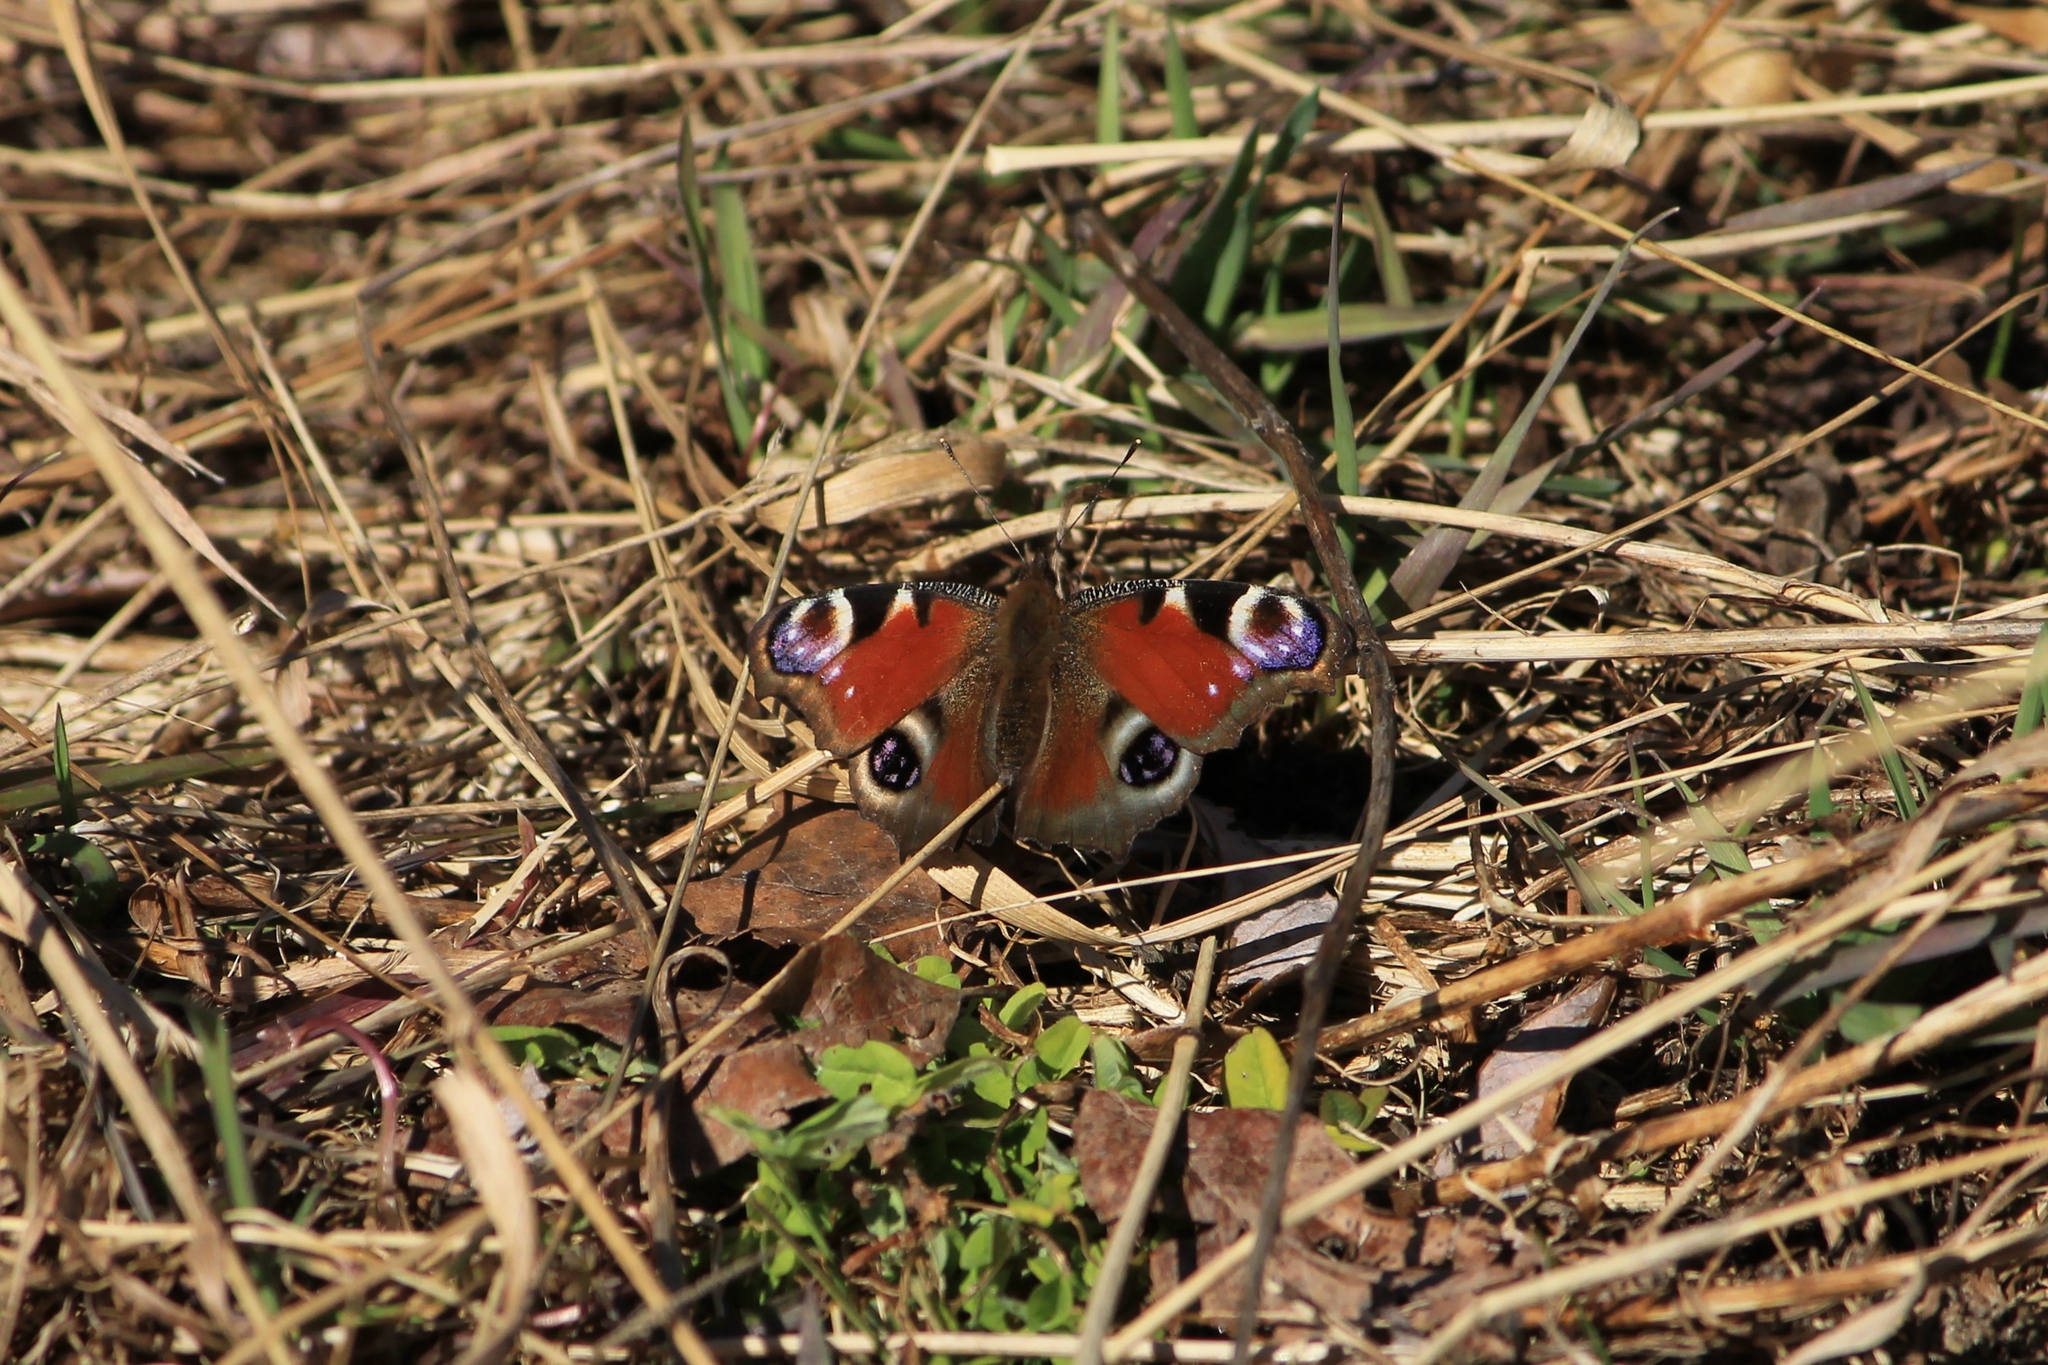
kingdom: Animalia
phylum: Arthropoda
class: Insecta
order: Lepidoptera
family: Nymphalidae
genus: Aglais
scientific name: Aglais io
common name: Peacock
